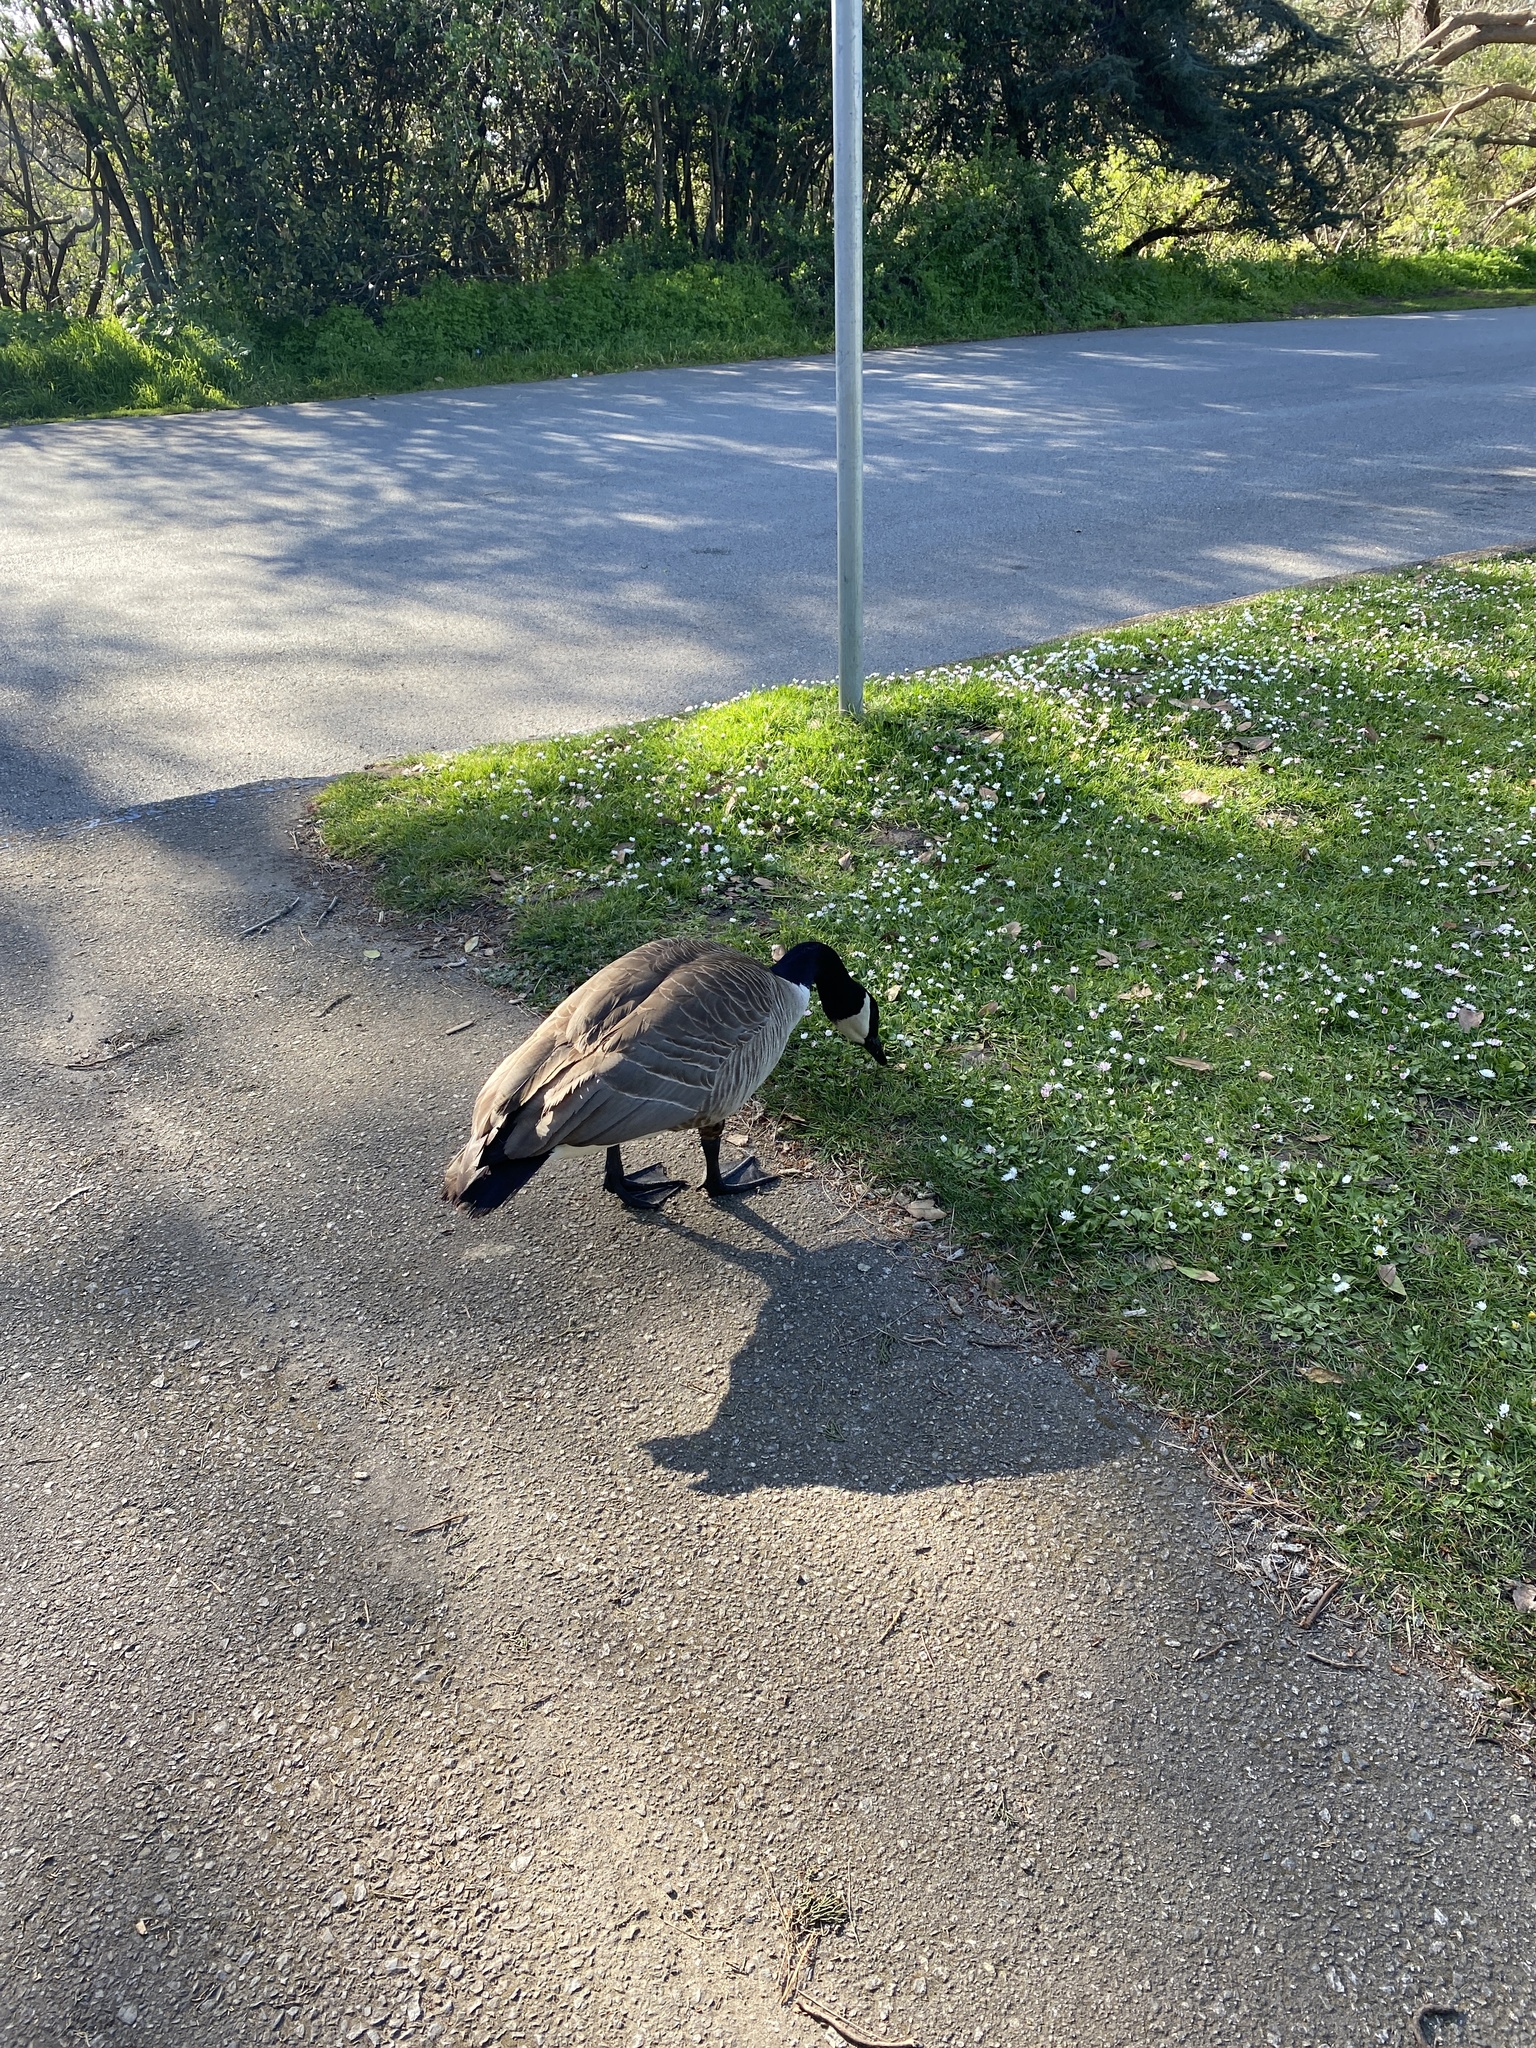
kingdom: Animalia
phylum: Chordata
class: Aves
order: Anseriformes
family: Anatidae
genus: Branta
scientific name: Branta canadensis
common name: Canada goose
